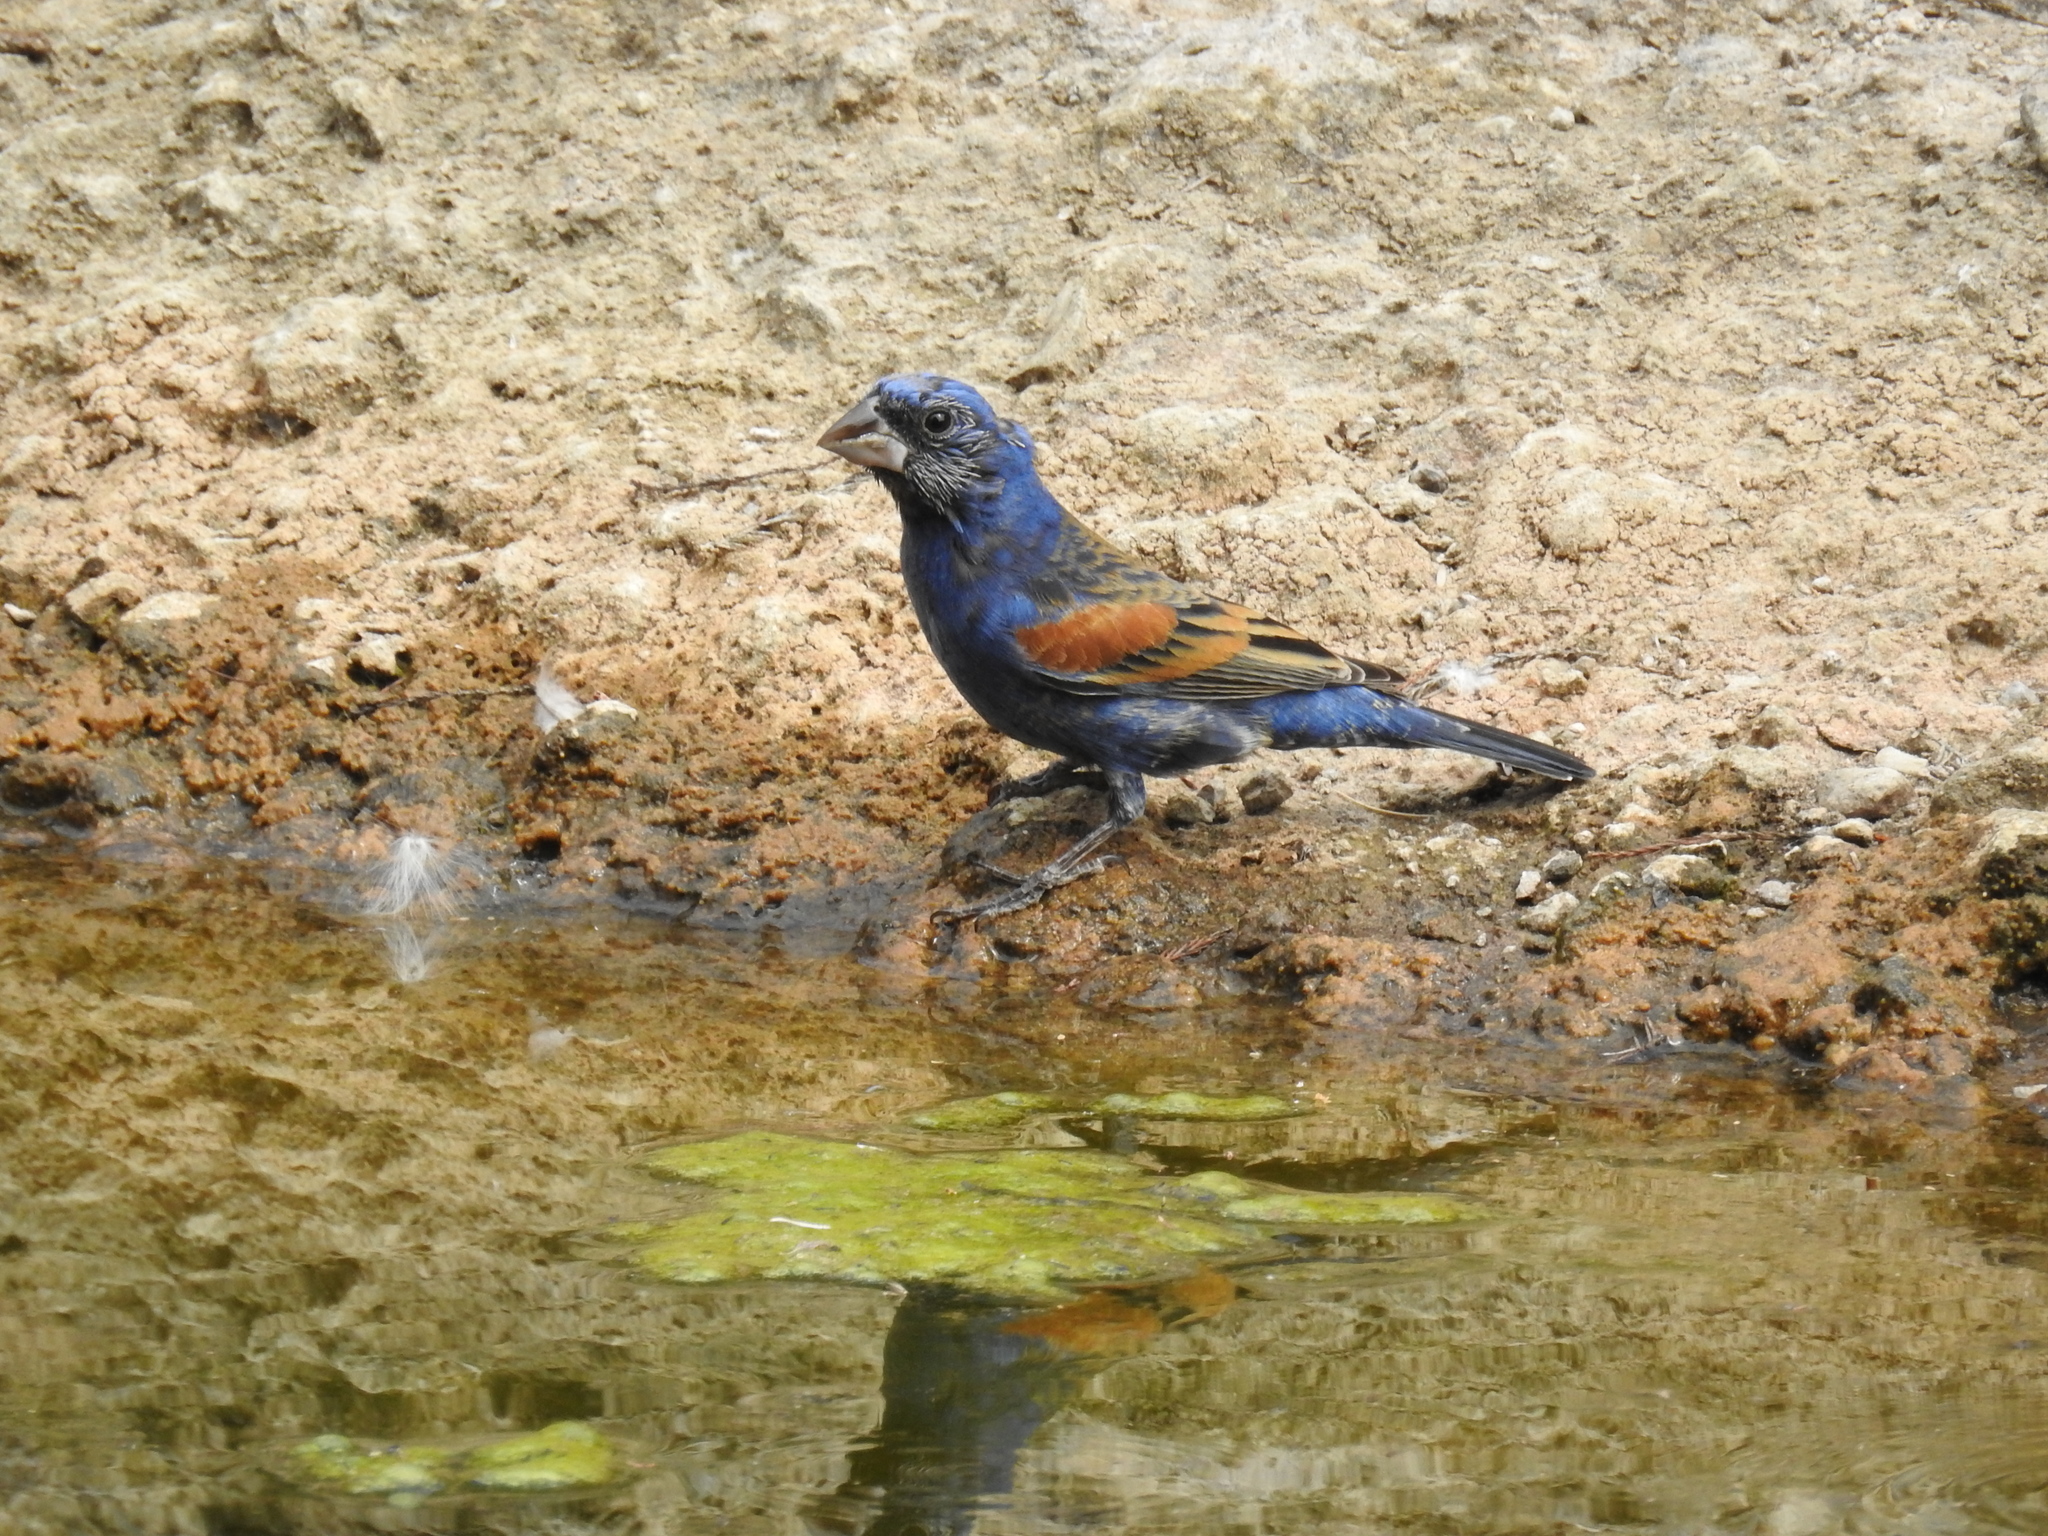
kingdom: Animalia
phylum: Chordata
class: Aves
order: Passeriformes
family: Cardinalidae
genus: Passerina
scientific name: Passerina caerulea
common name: Blue grosbeak
